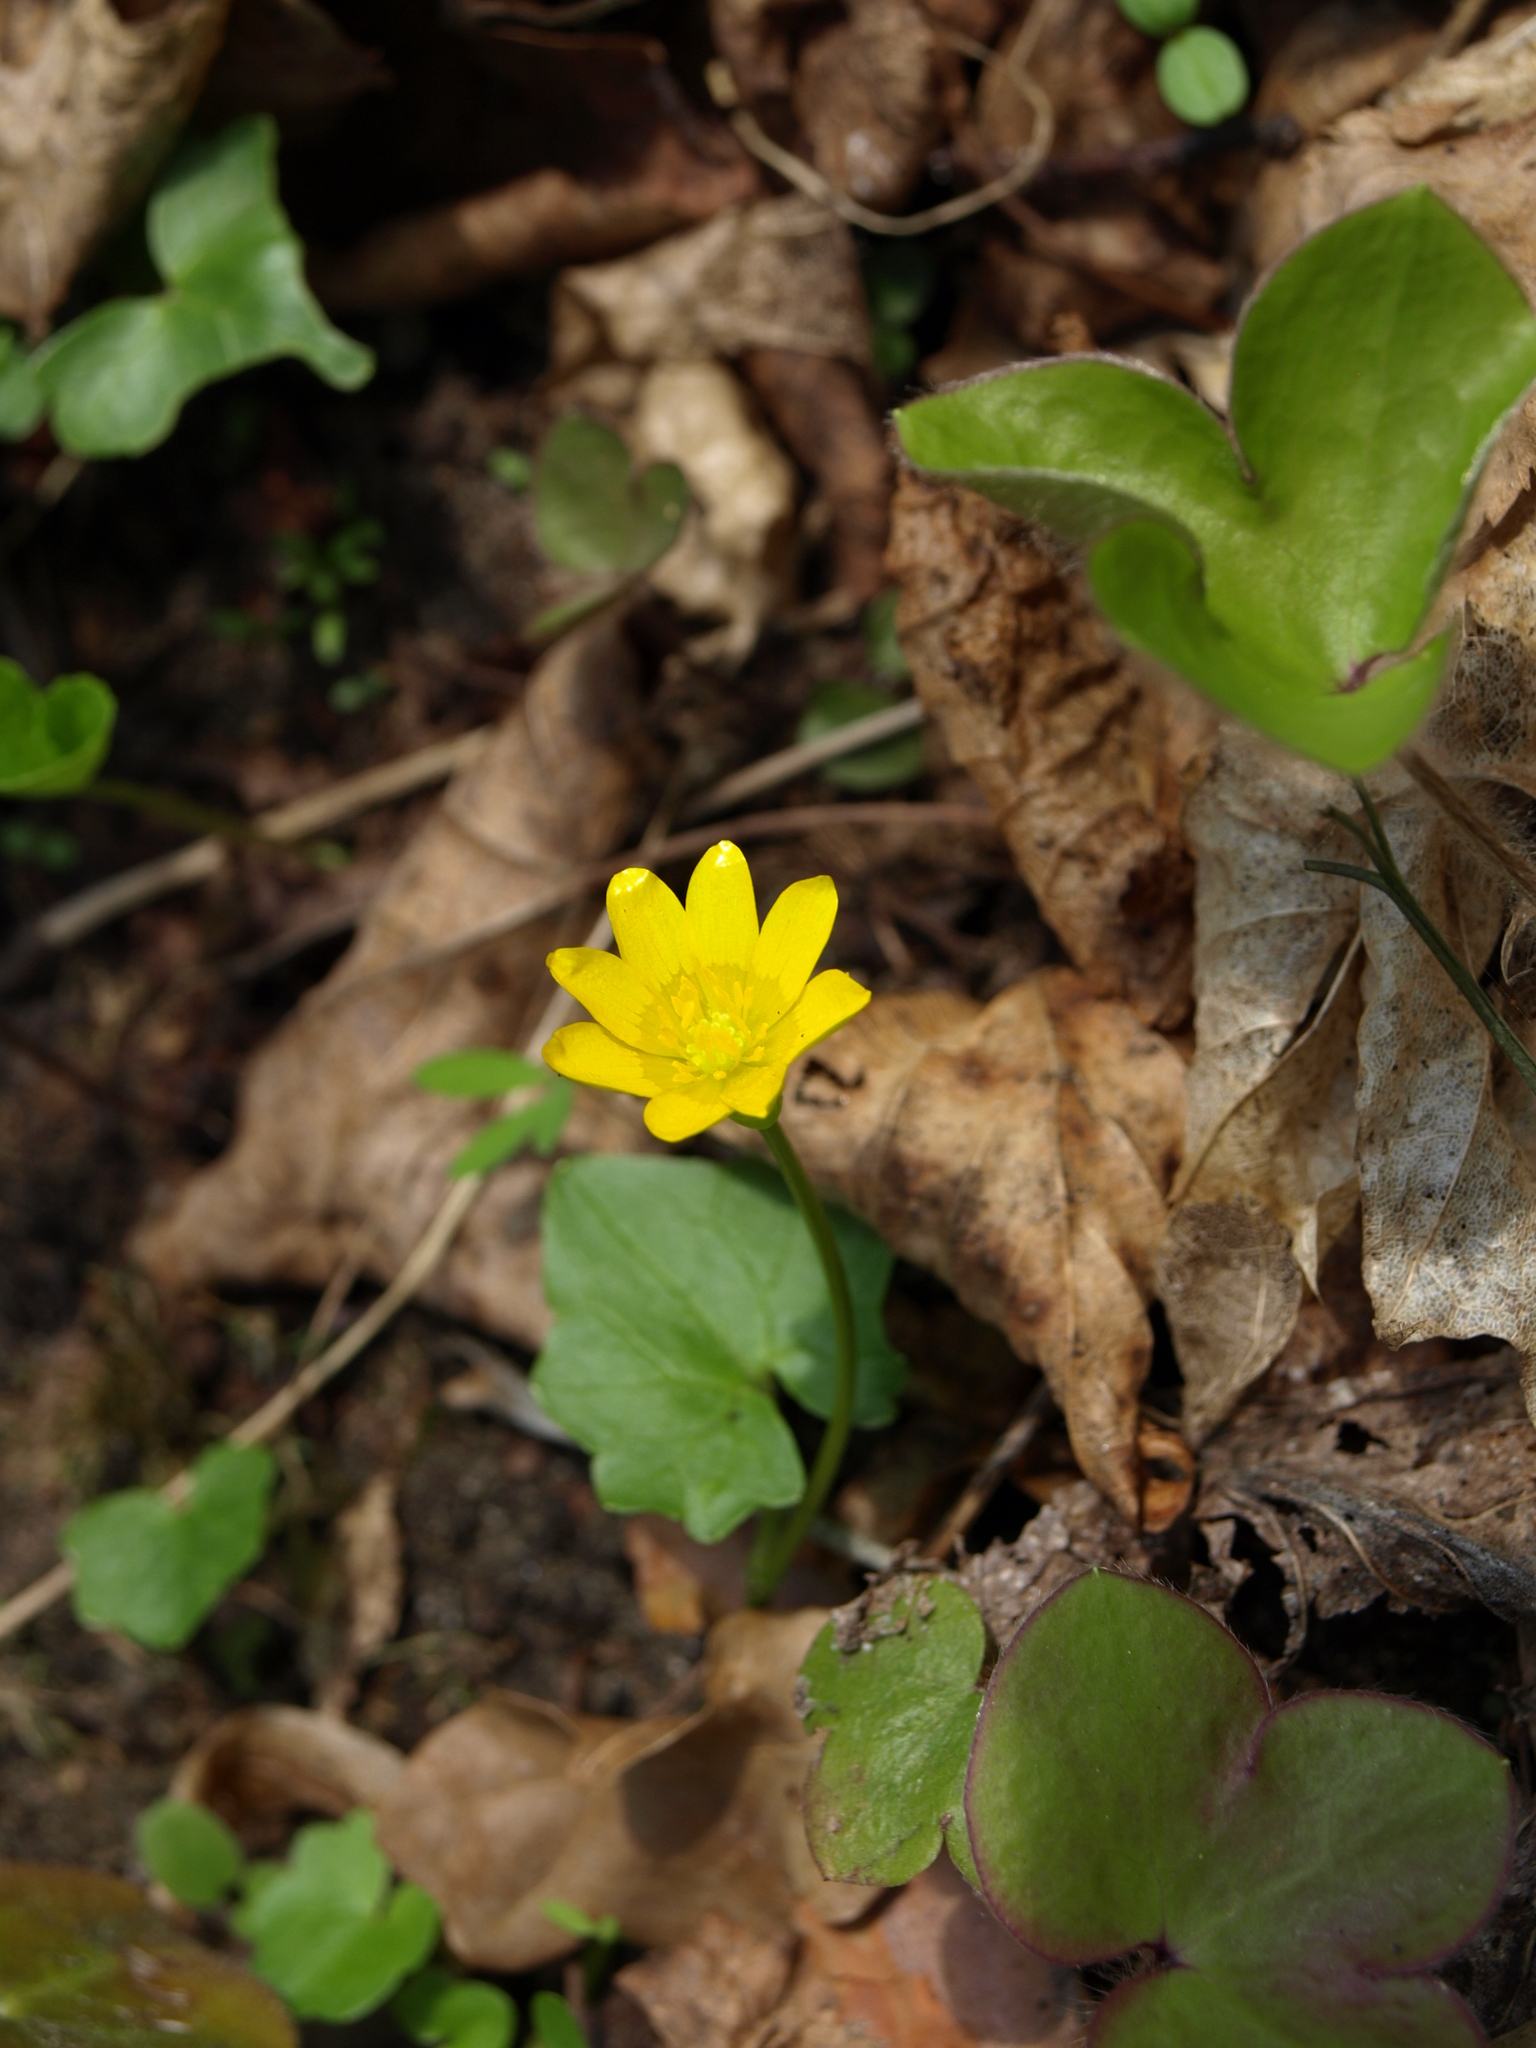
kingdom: Plantae
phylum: Tracheophyta
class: Magnoliopsida
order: Ranunculales
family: Ranunculaceae
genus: Ficaria
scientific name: Ficaria verna
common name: Lesser celandine
